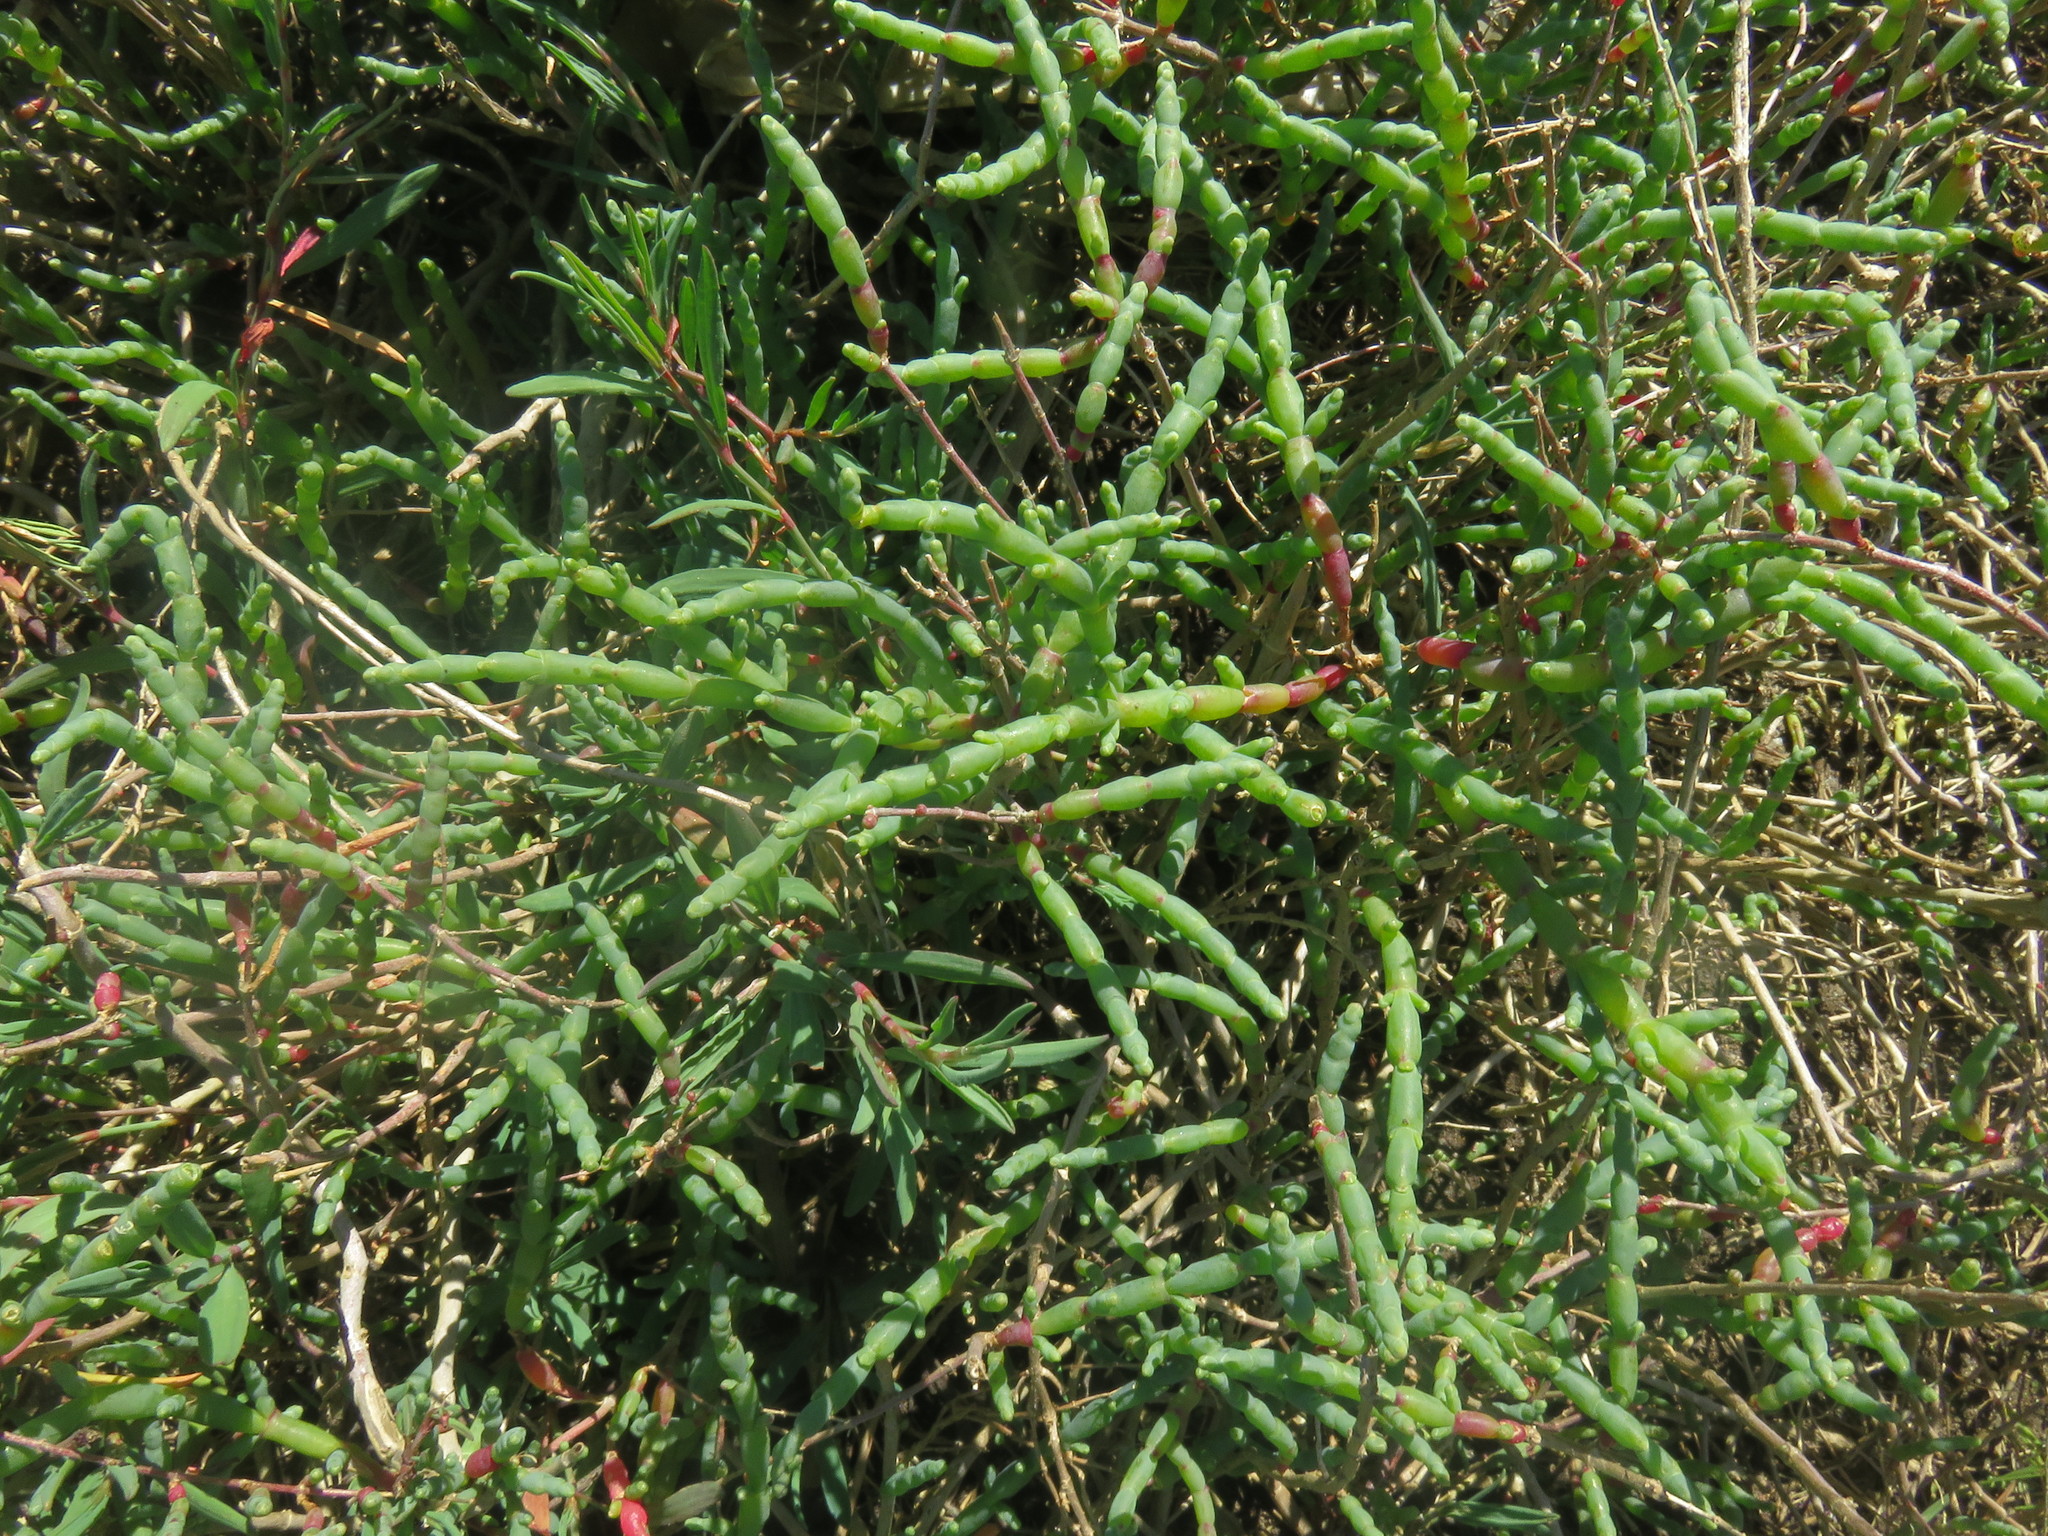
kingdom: Plantae
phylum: Tracheophyta
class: Magnoliopsida
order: Caryophyllales
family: Amaranthaceae
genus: Salicornia
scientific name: Salicornia neei
